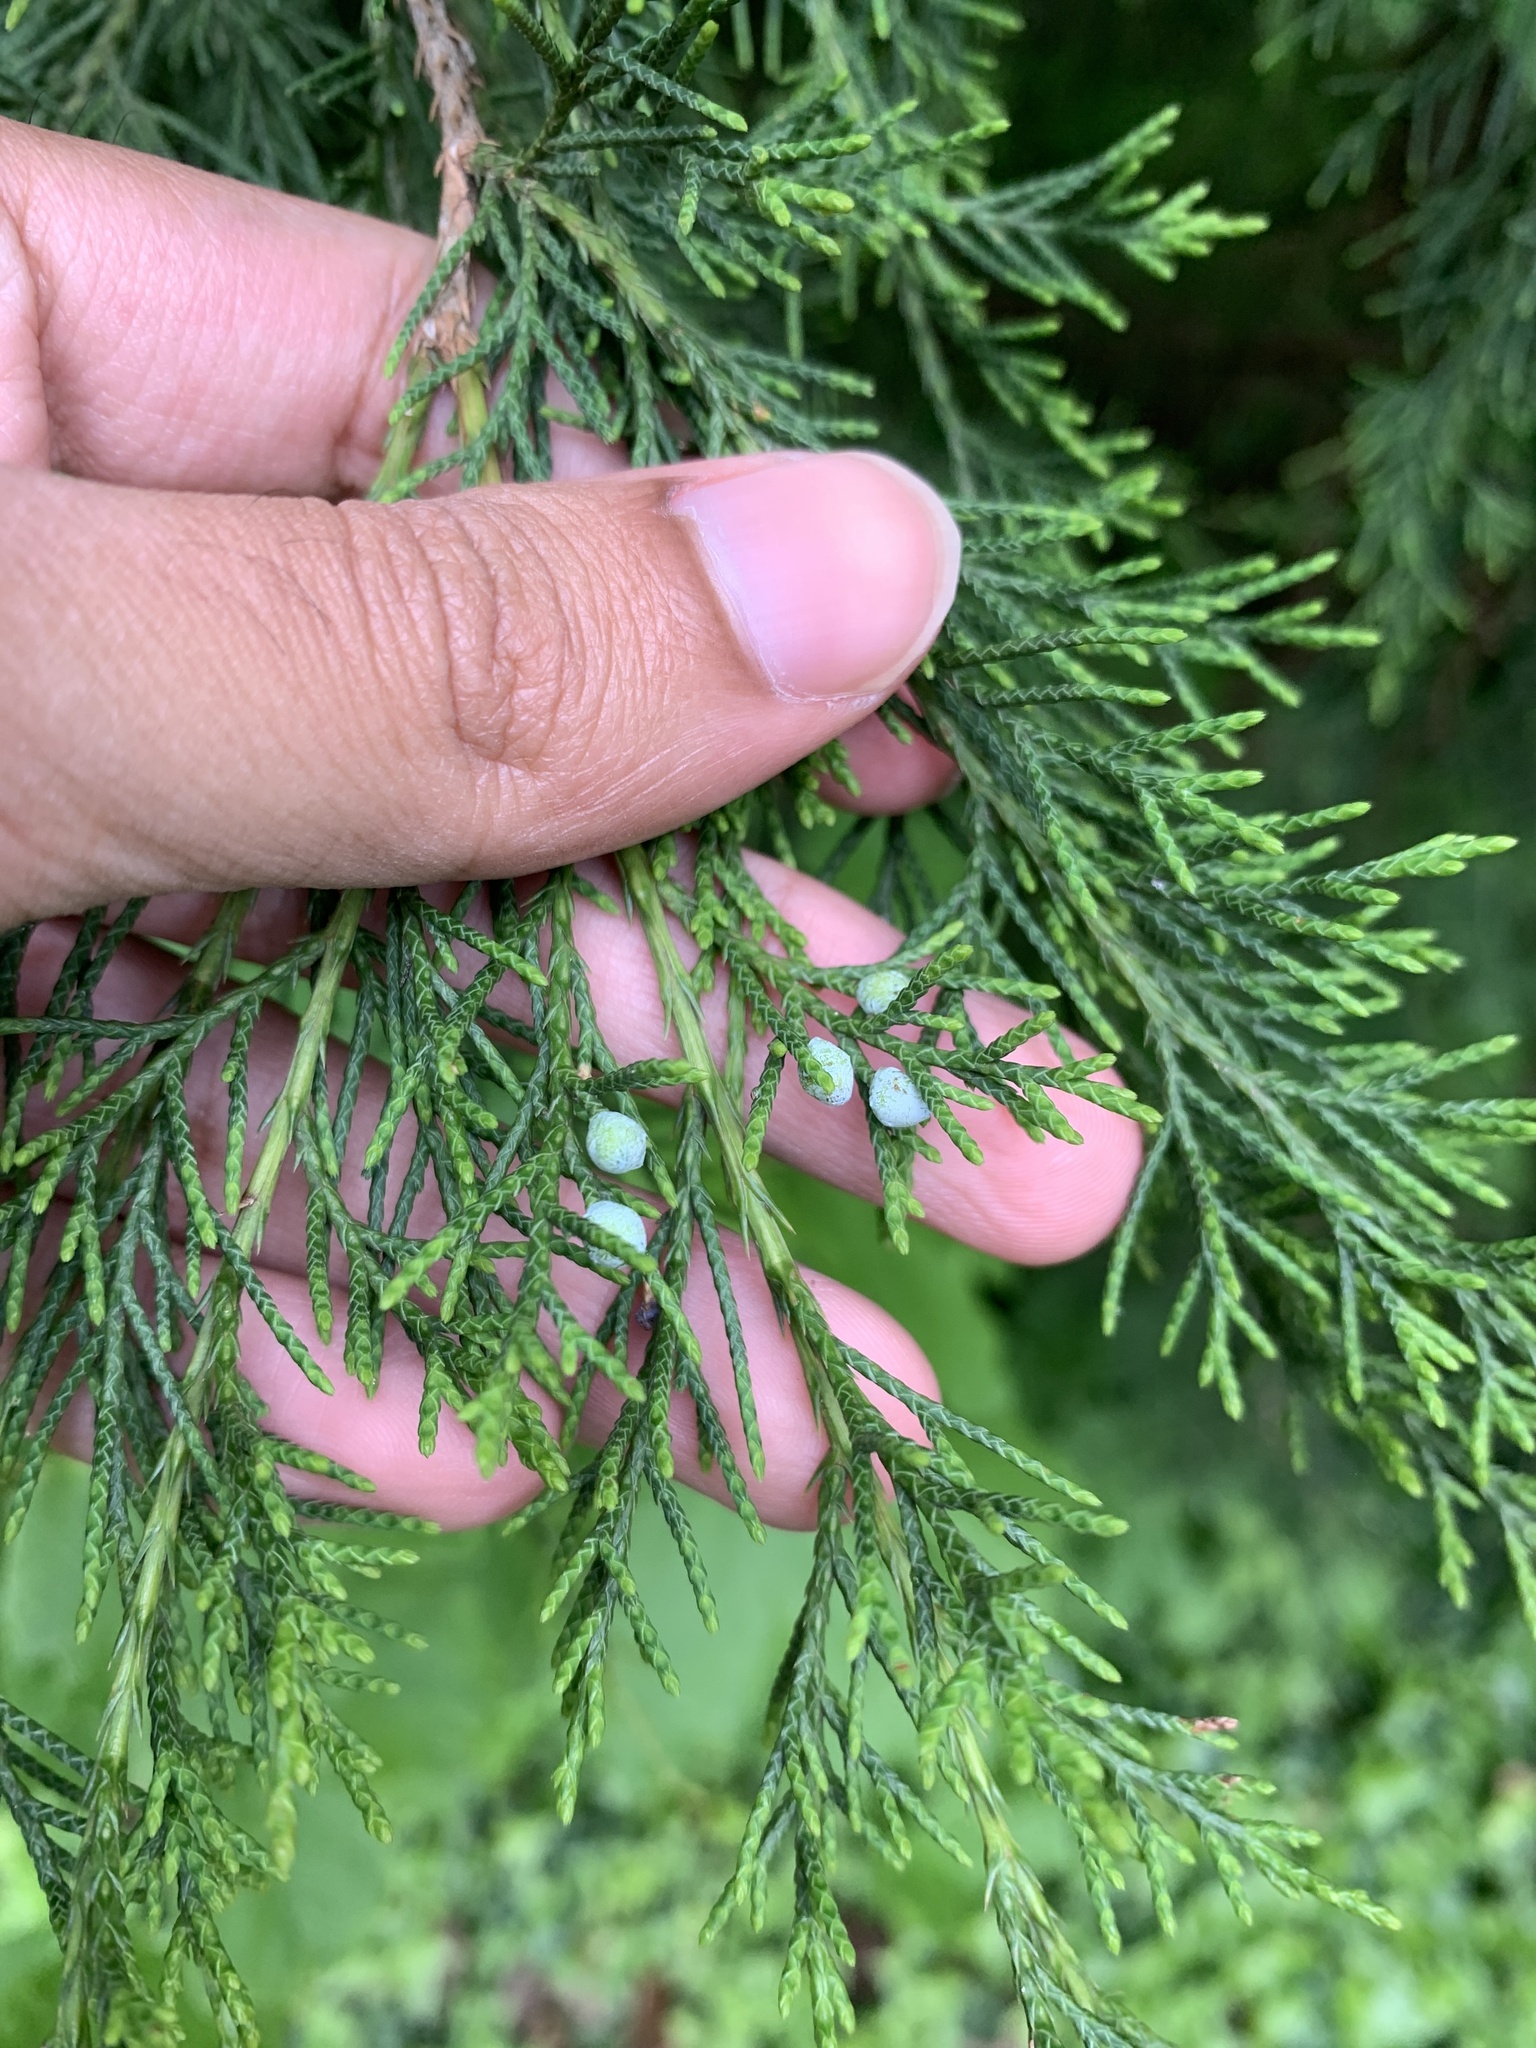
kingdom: Plantae
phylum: Tracheophyta
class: Pinopsida
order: Pinales
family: Cupressaceae
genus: Juniperus
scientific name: Juniperus virginiana
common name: Red juniper
